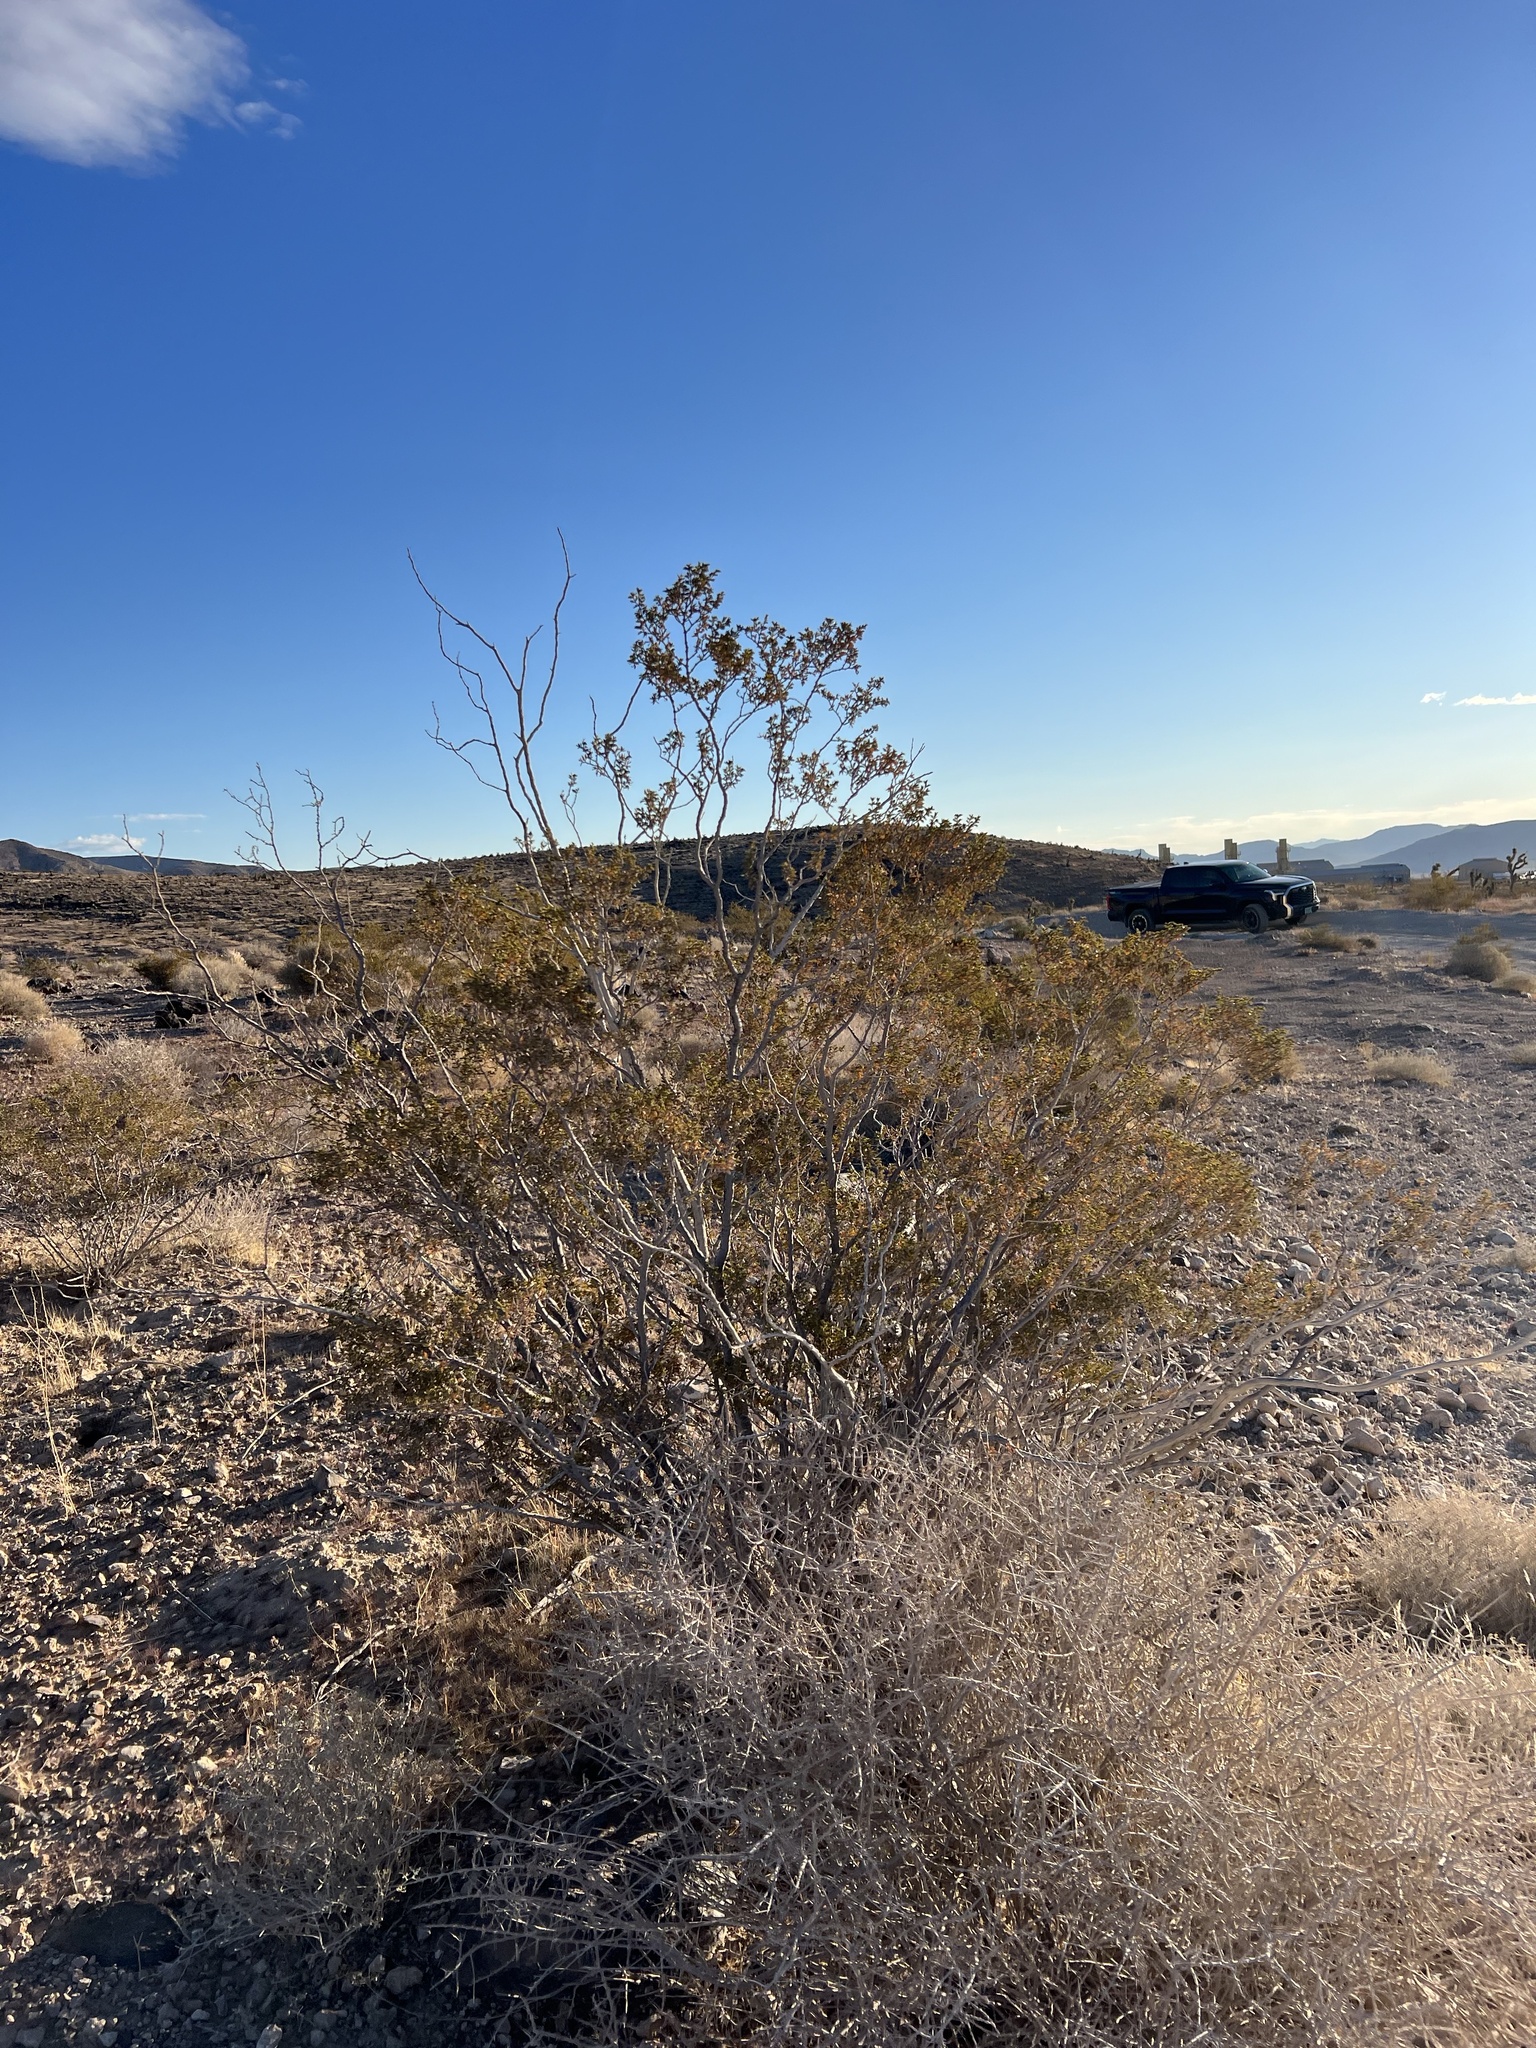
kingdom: Plantae
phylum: Tracheophyta
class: Magnoliopsida
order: Zygophyllales
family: Zygophyllaceae
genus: Larrea
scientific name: Larrea tridentata
